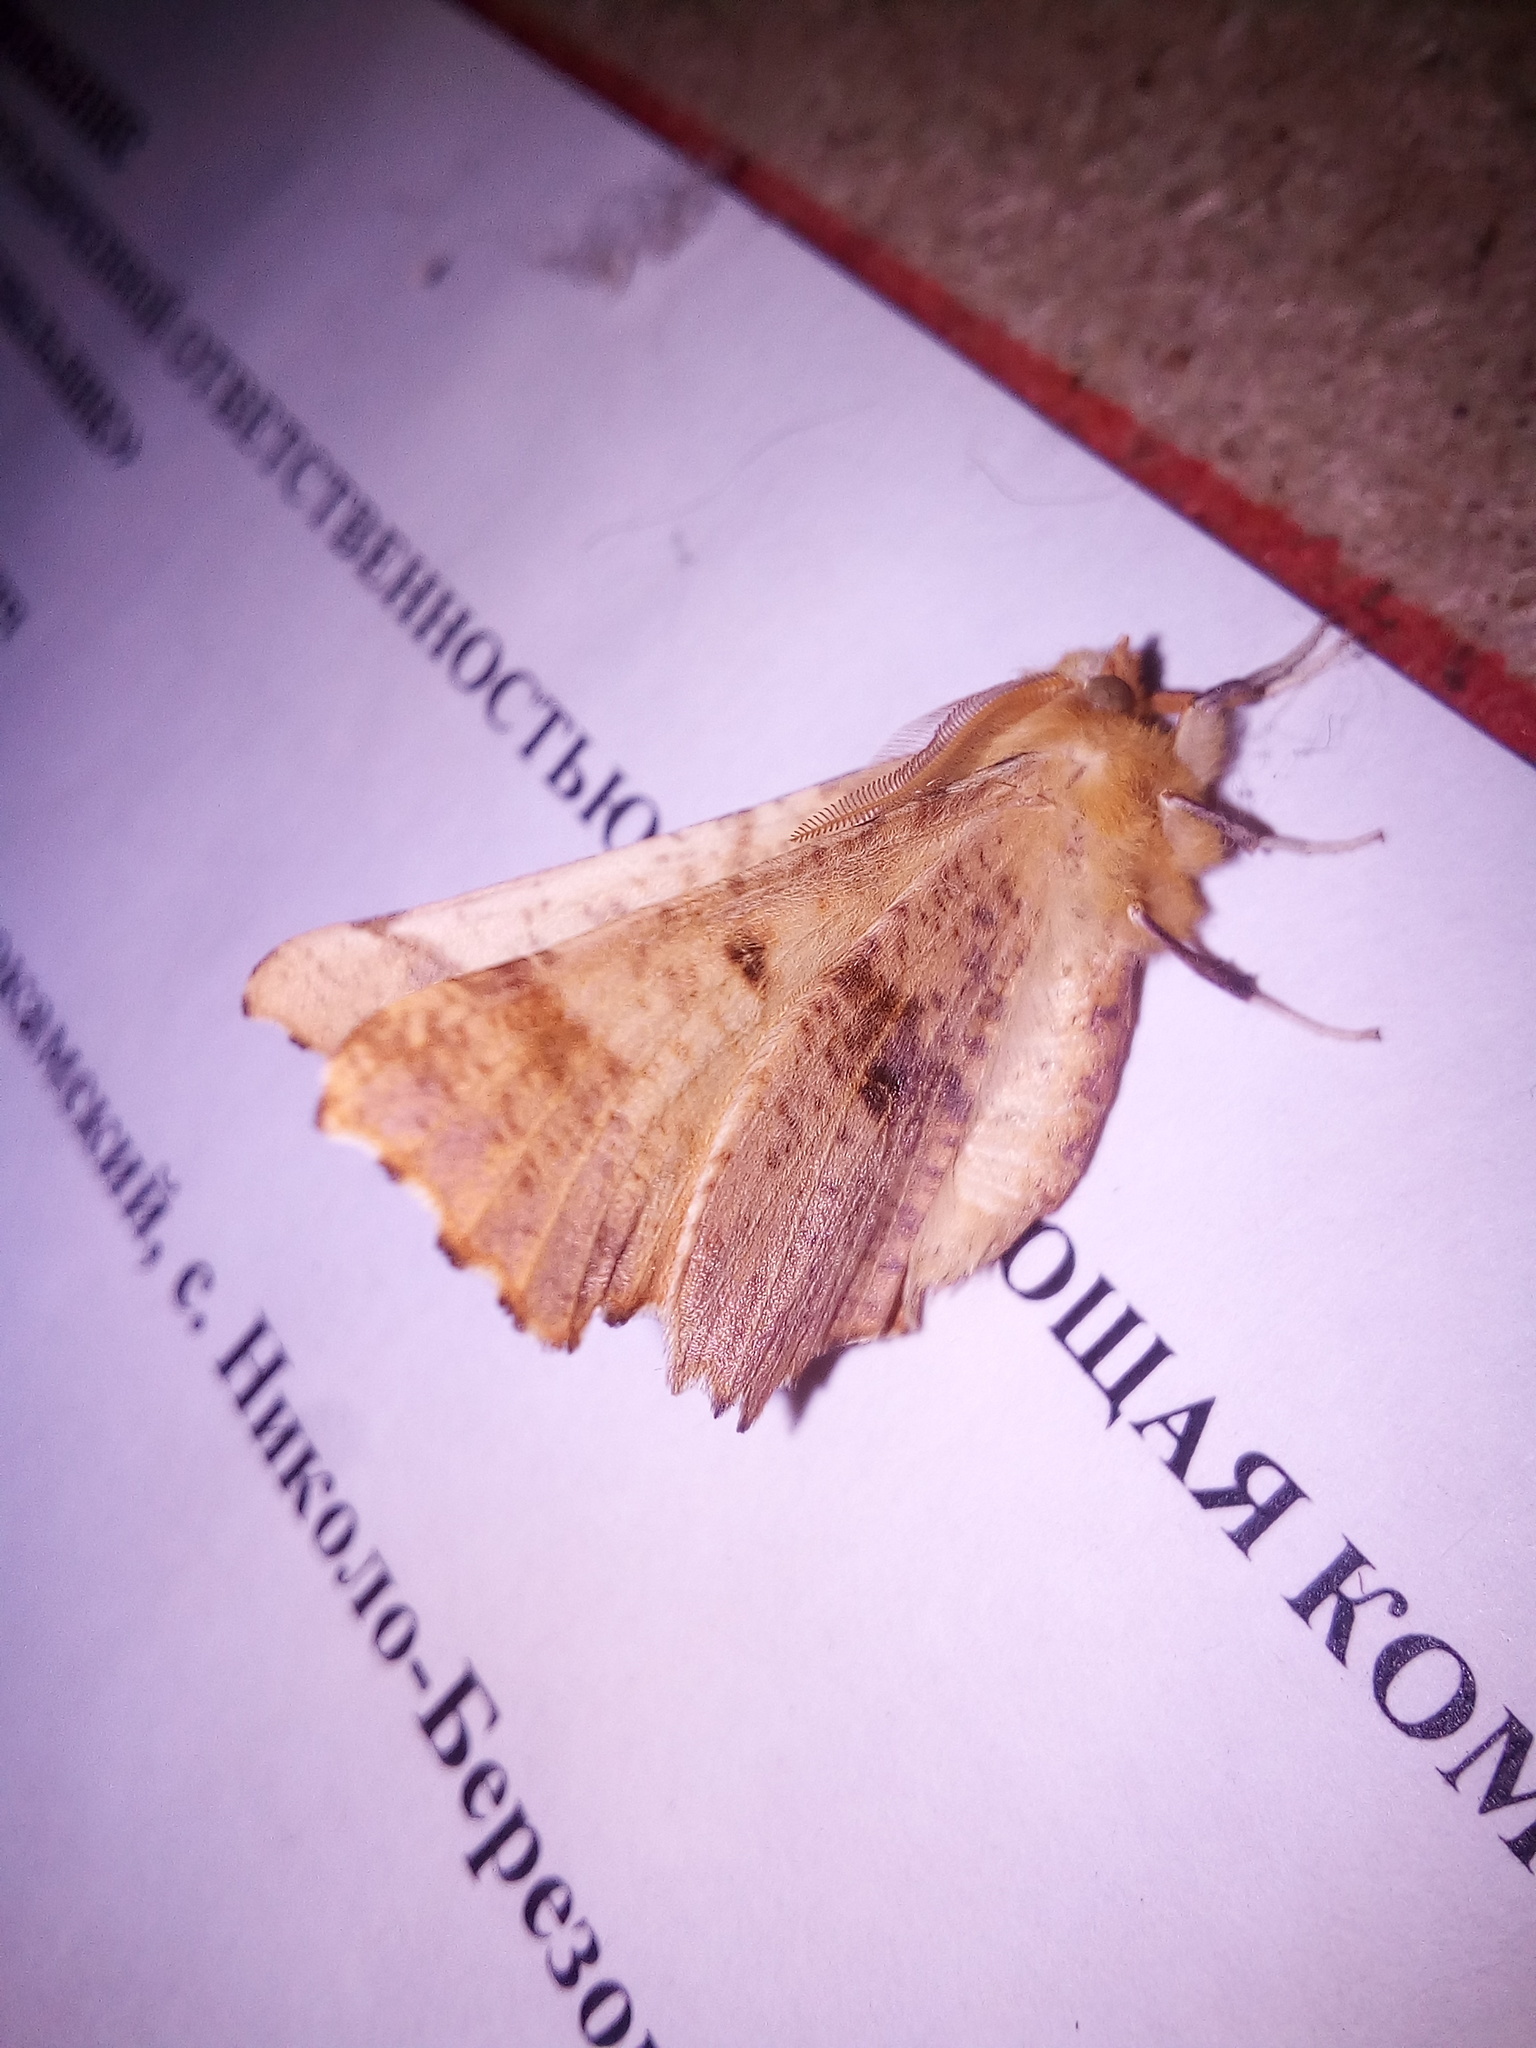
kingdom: Animalia
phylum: Arthropoda
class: Insecta
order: Lepidoptera
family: Geometridae
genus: Ennomos
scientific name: Ennomos autumnaria
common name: Large thorn
